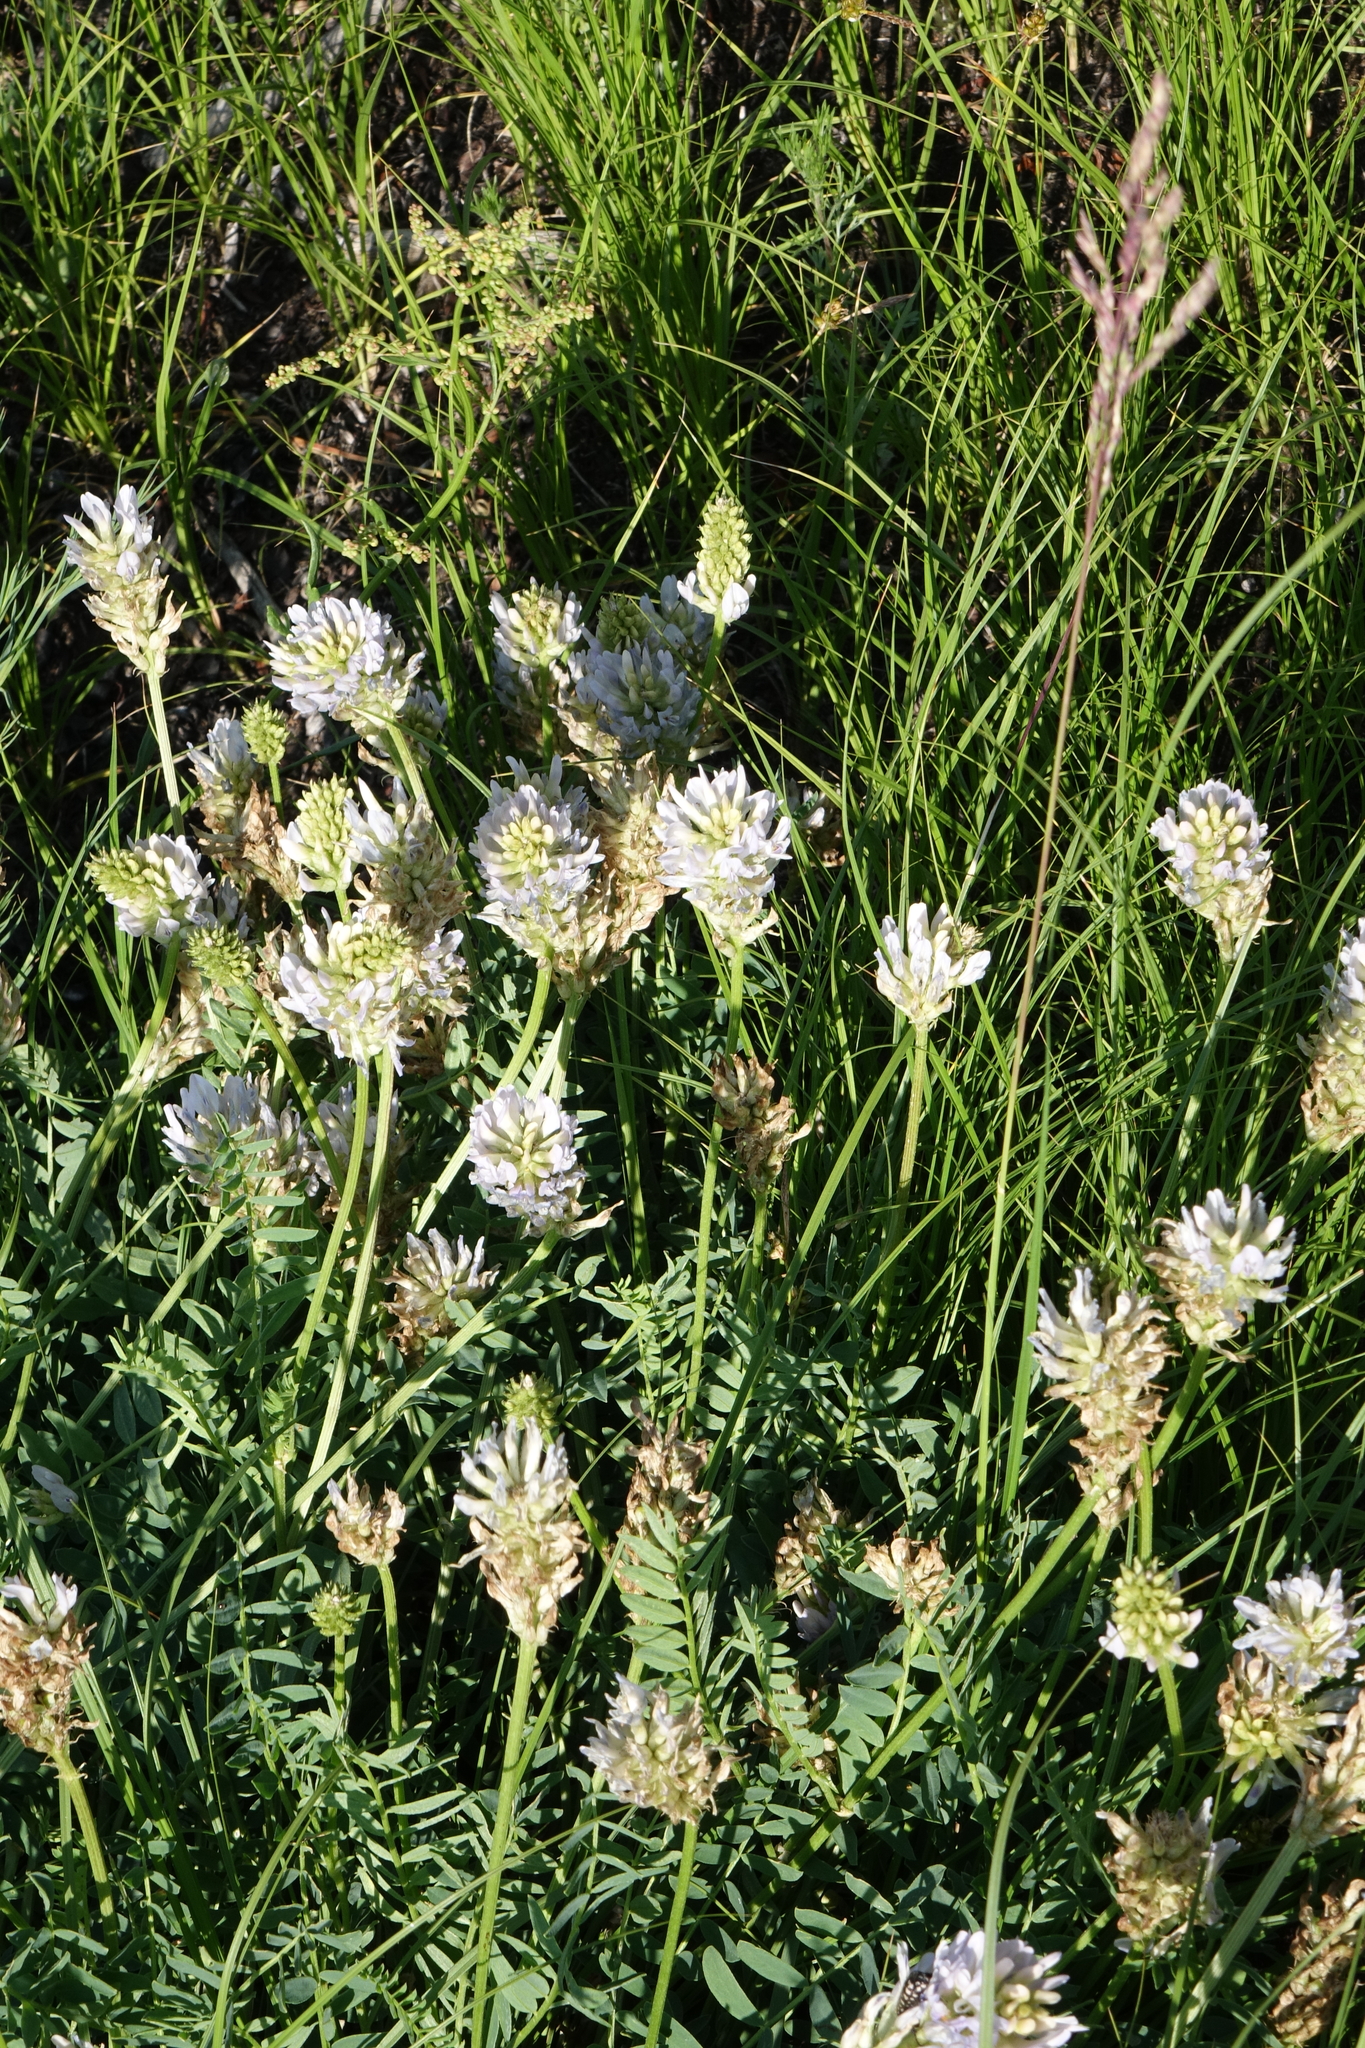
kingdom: Plantae
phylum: Tracheophyta
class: Magnoliopsida
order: Fabales
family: Fabaceae
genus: Astragalus
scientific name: Astragalus laxmannii
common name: Laxmann's milk-vetch
